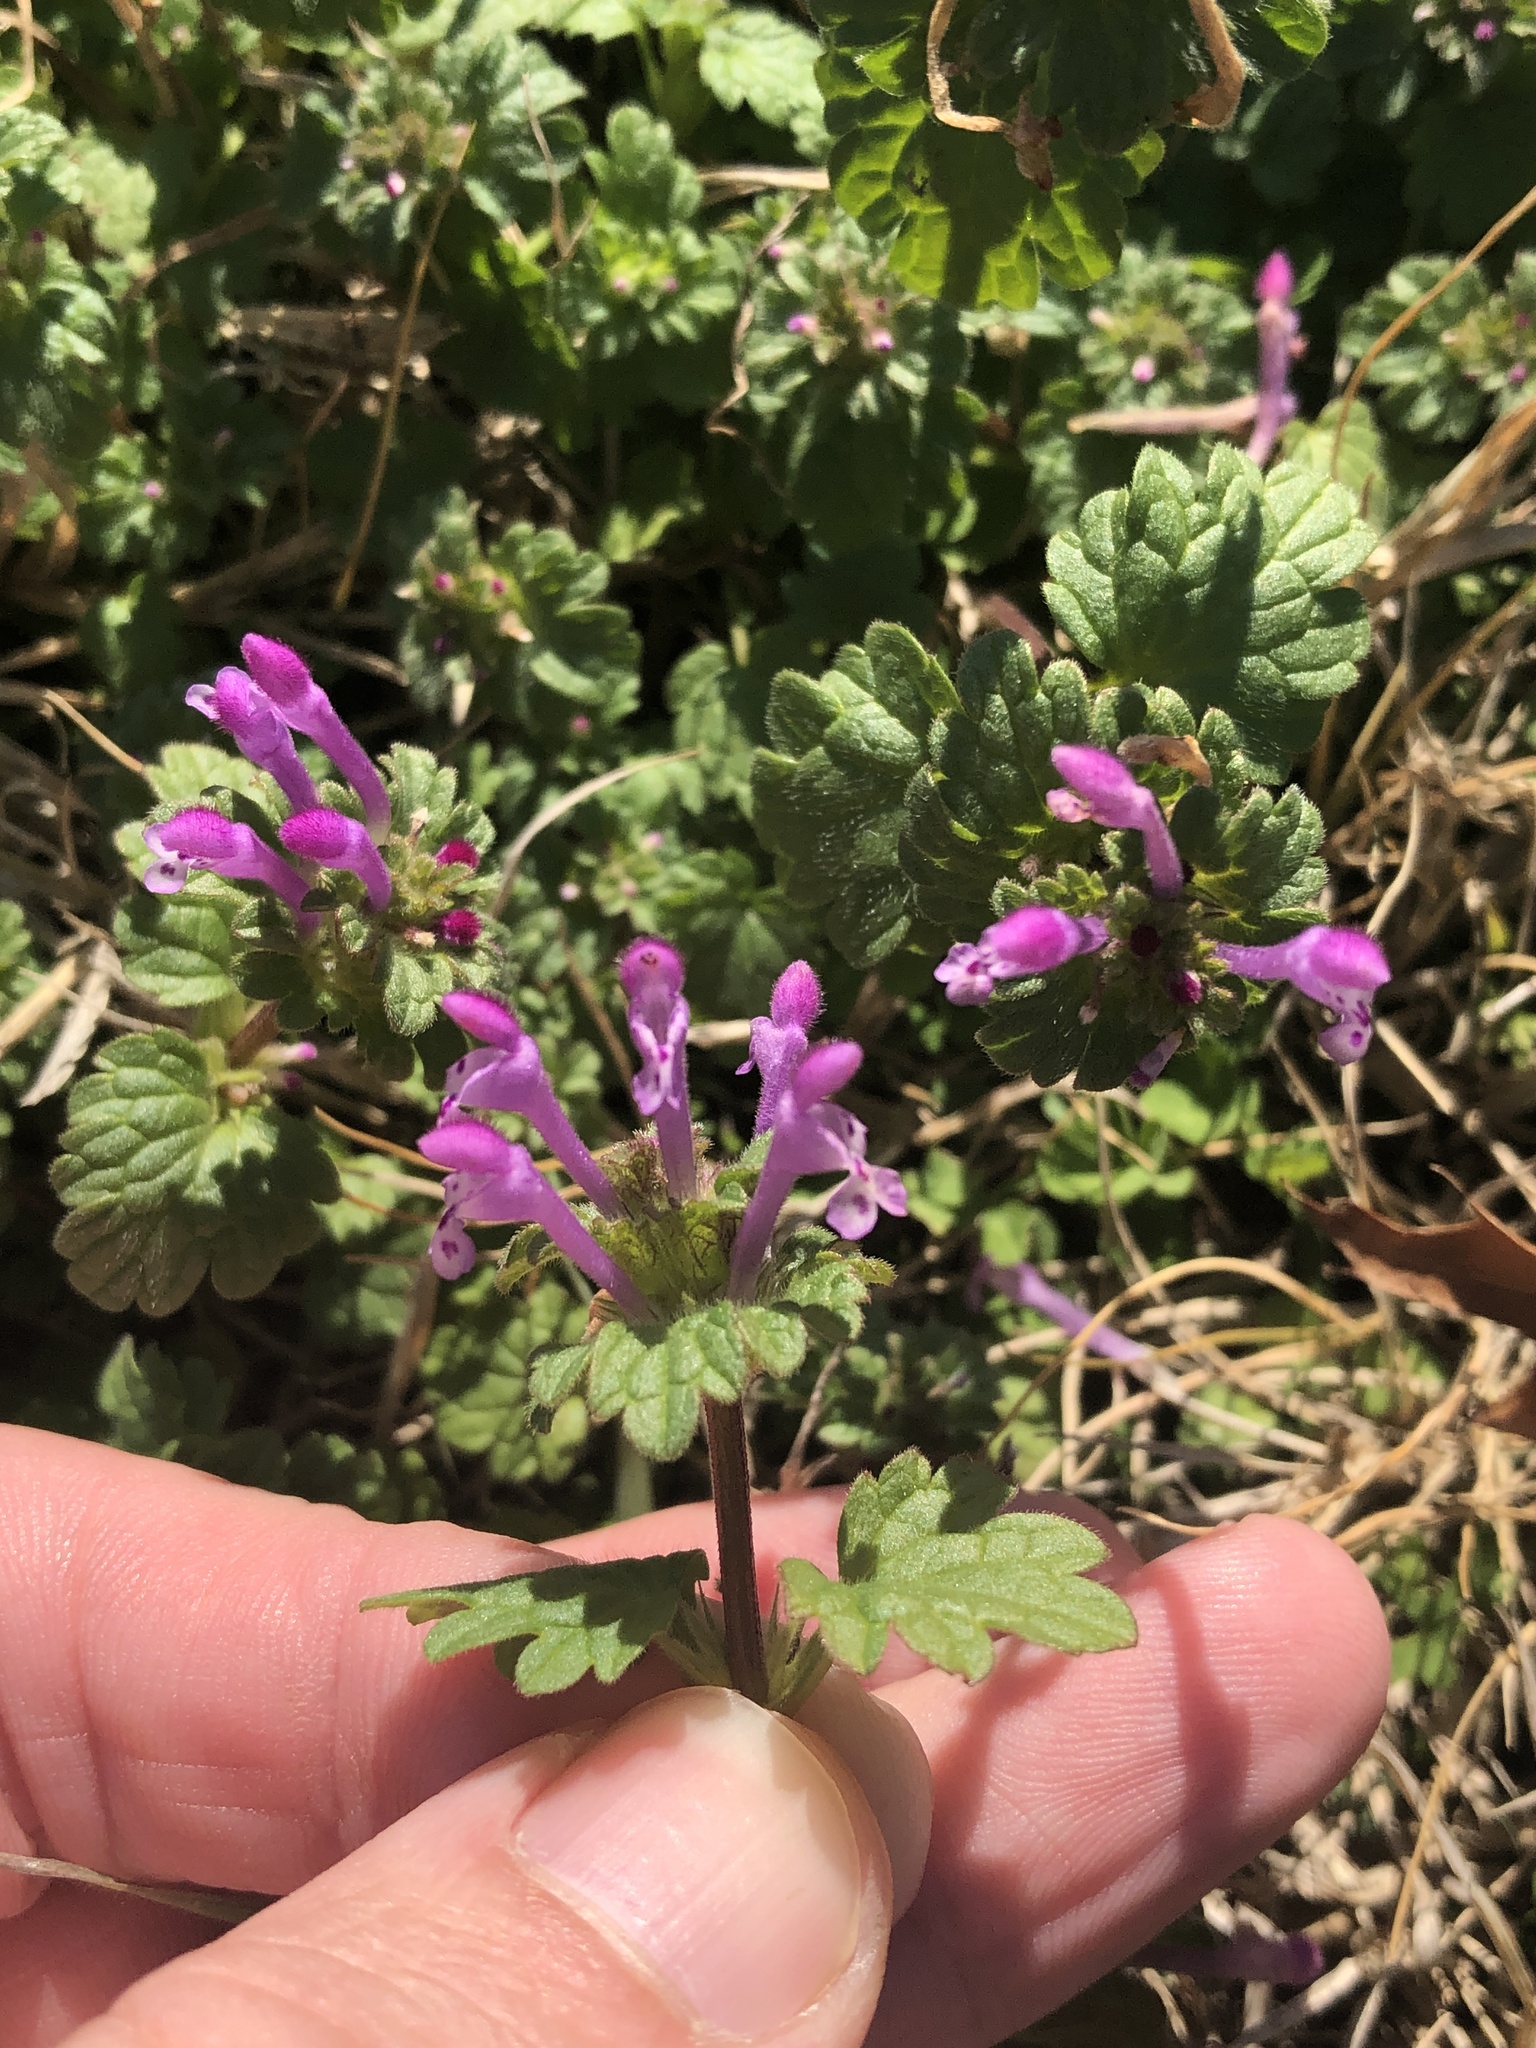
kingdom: Plantae
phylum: Tracheophyta
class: Magnoliopsida
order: Lamiales
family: Lamiaceae
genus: Lamium
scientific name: Lamium amplexicaule
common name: Henbit dead-nettle
